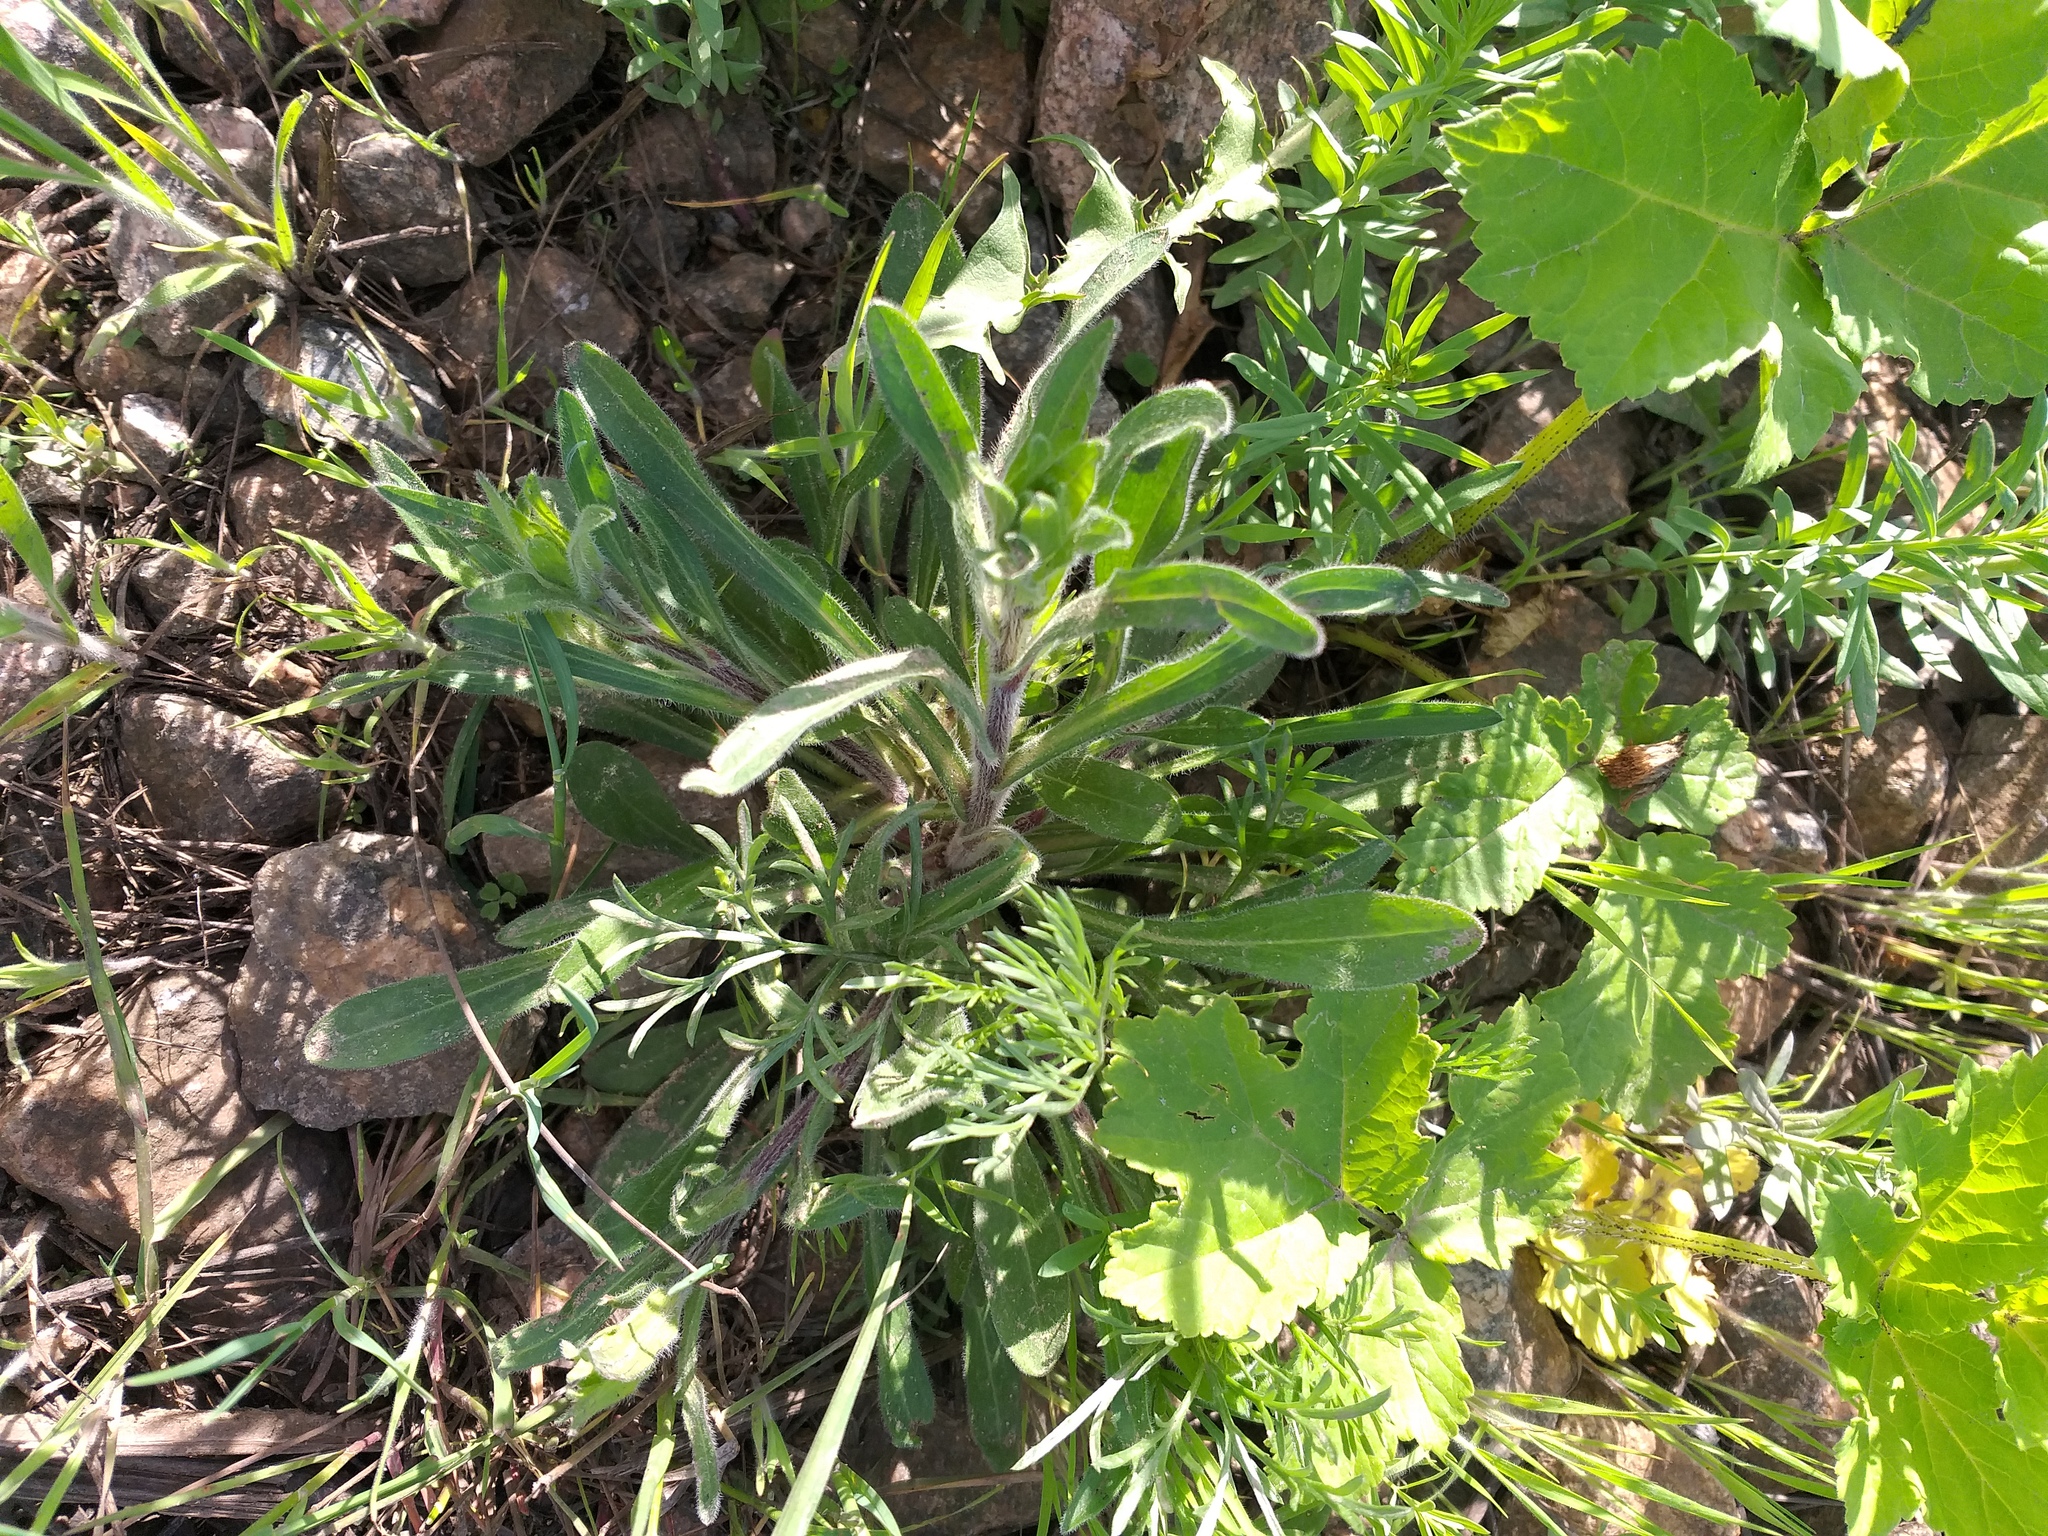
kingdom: Plantae
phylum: Tracheophyta
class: Magnoliopsida
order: Asterales
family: Asteraceae
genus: Erigeron
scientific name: Erigeron acris
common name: Blue fleabane
